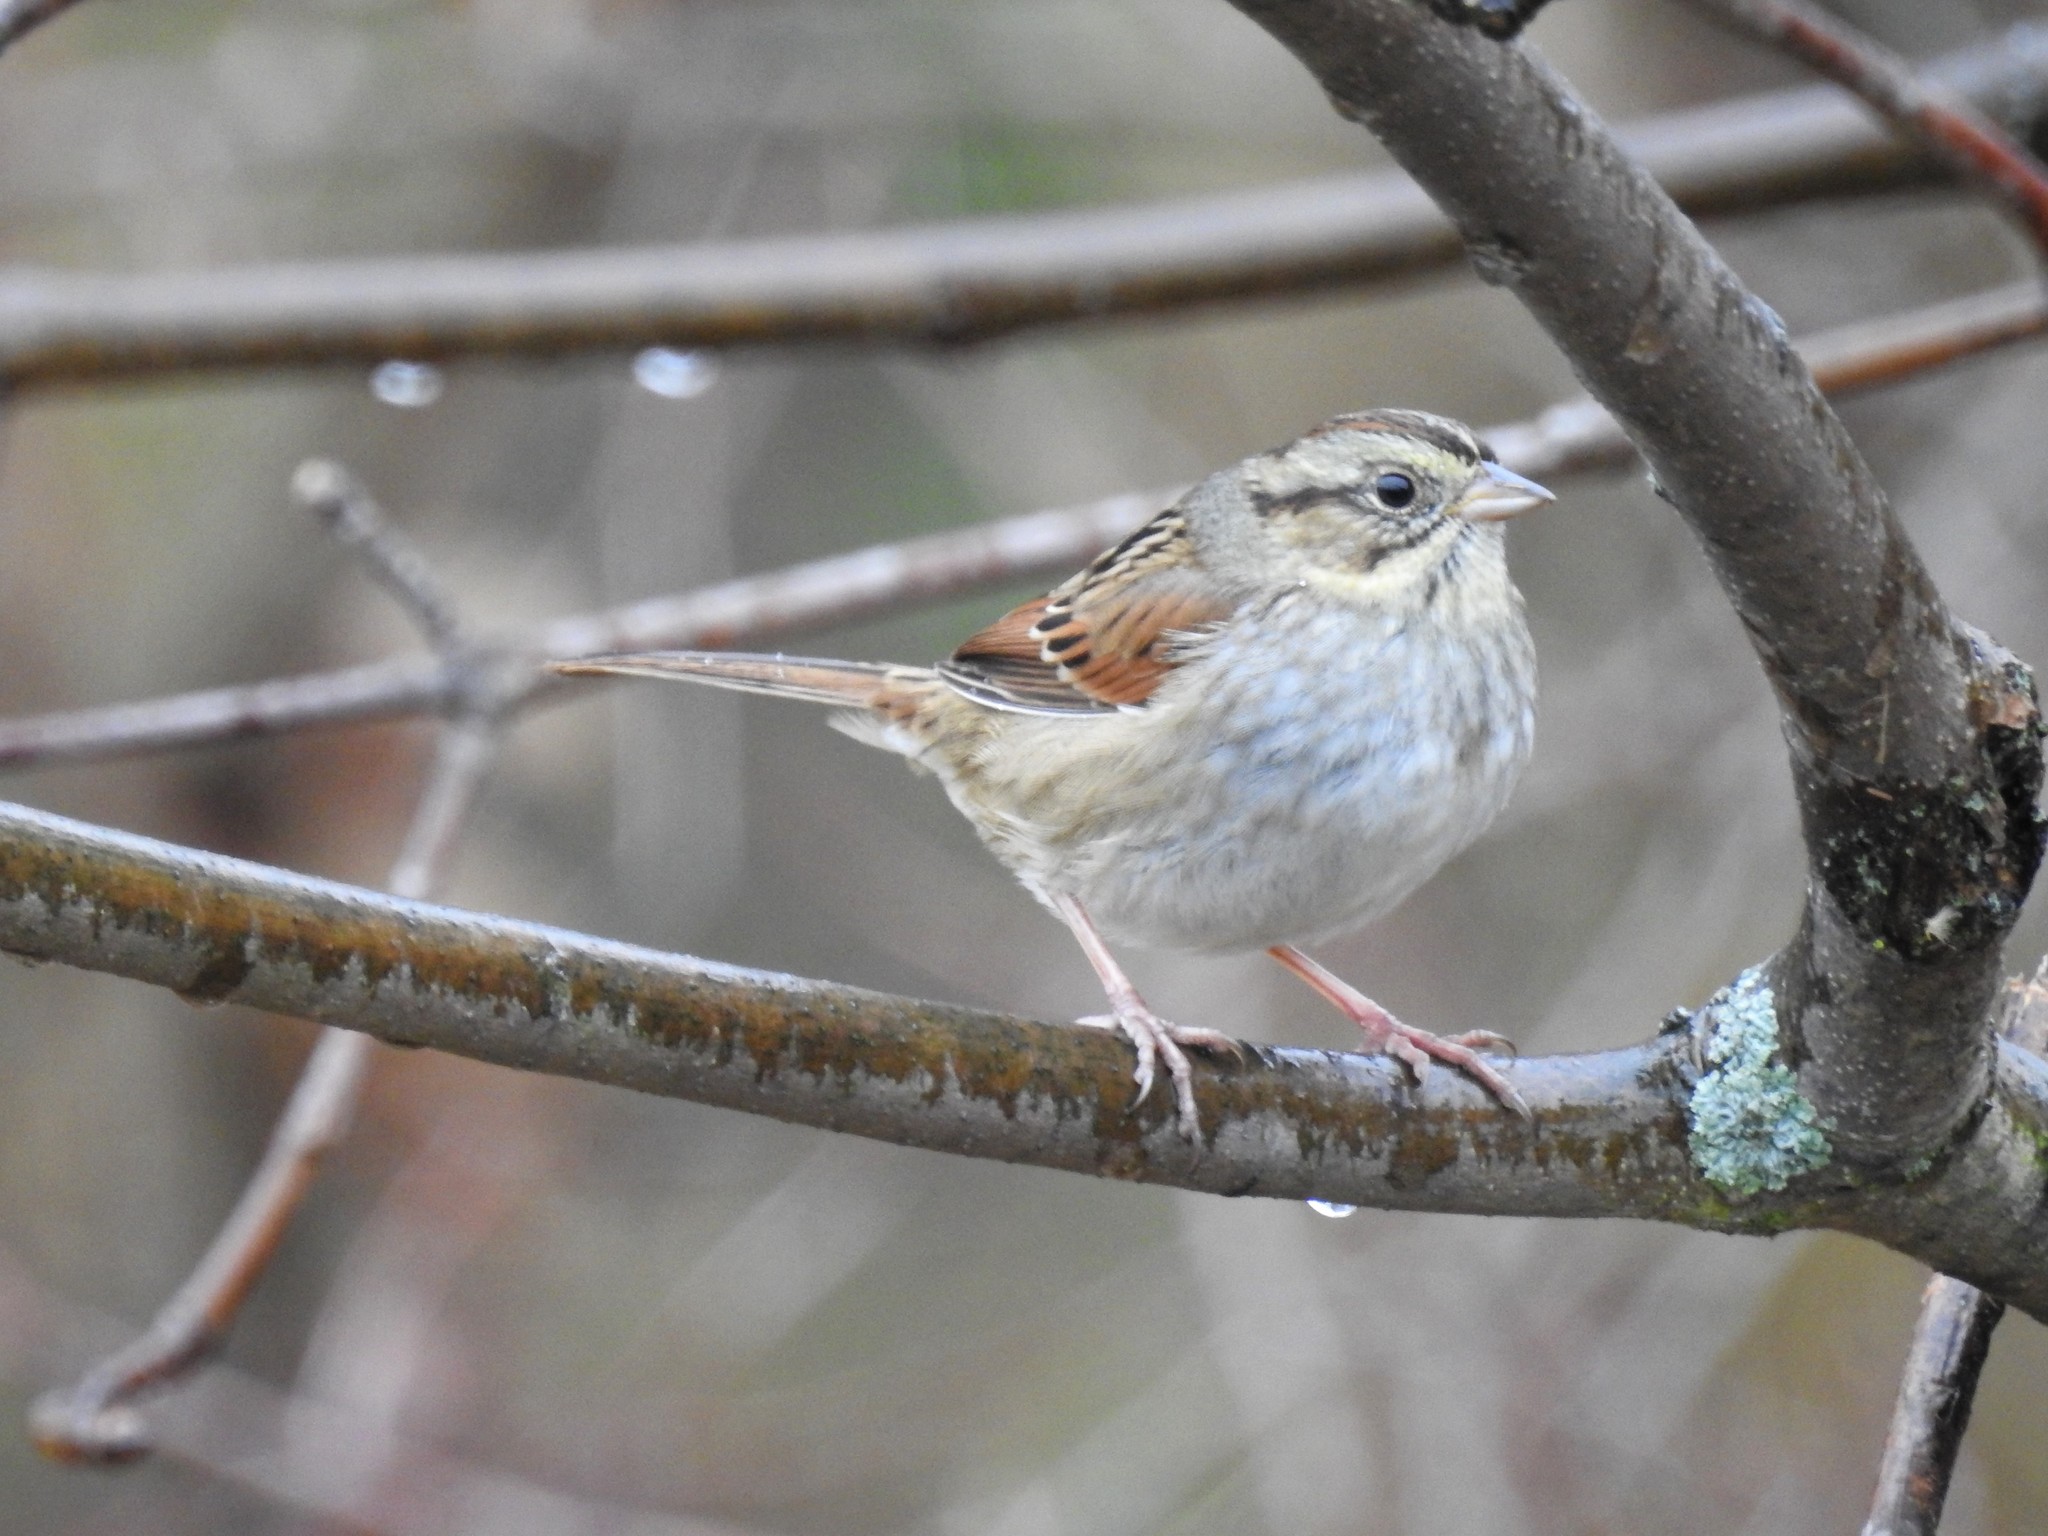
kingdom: Animalia
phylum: Chordata
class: Aves
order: Passeriformes
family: Passerellidae
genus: Melospiza
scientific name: Melospiza georgiana
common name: Swamp sparrow
